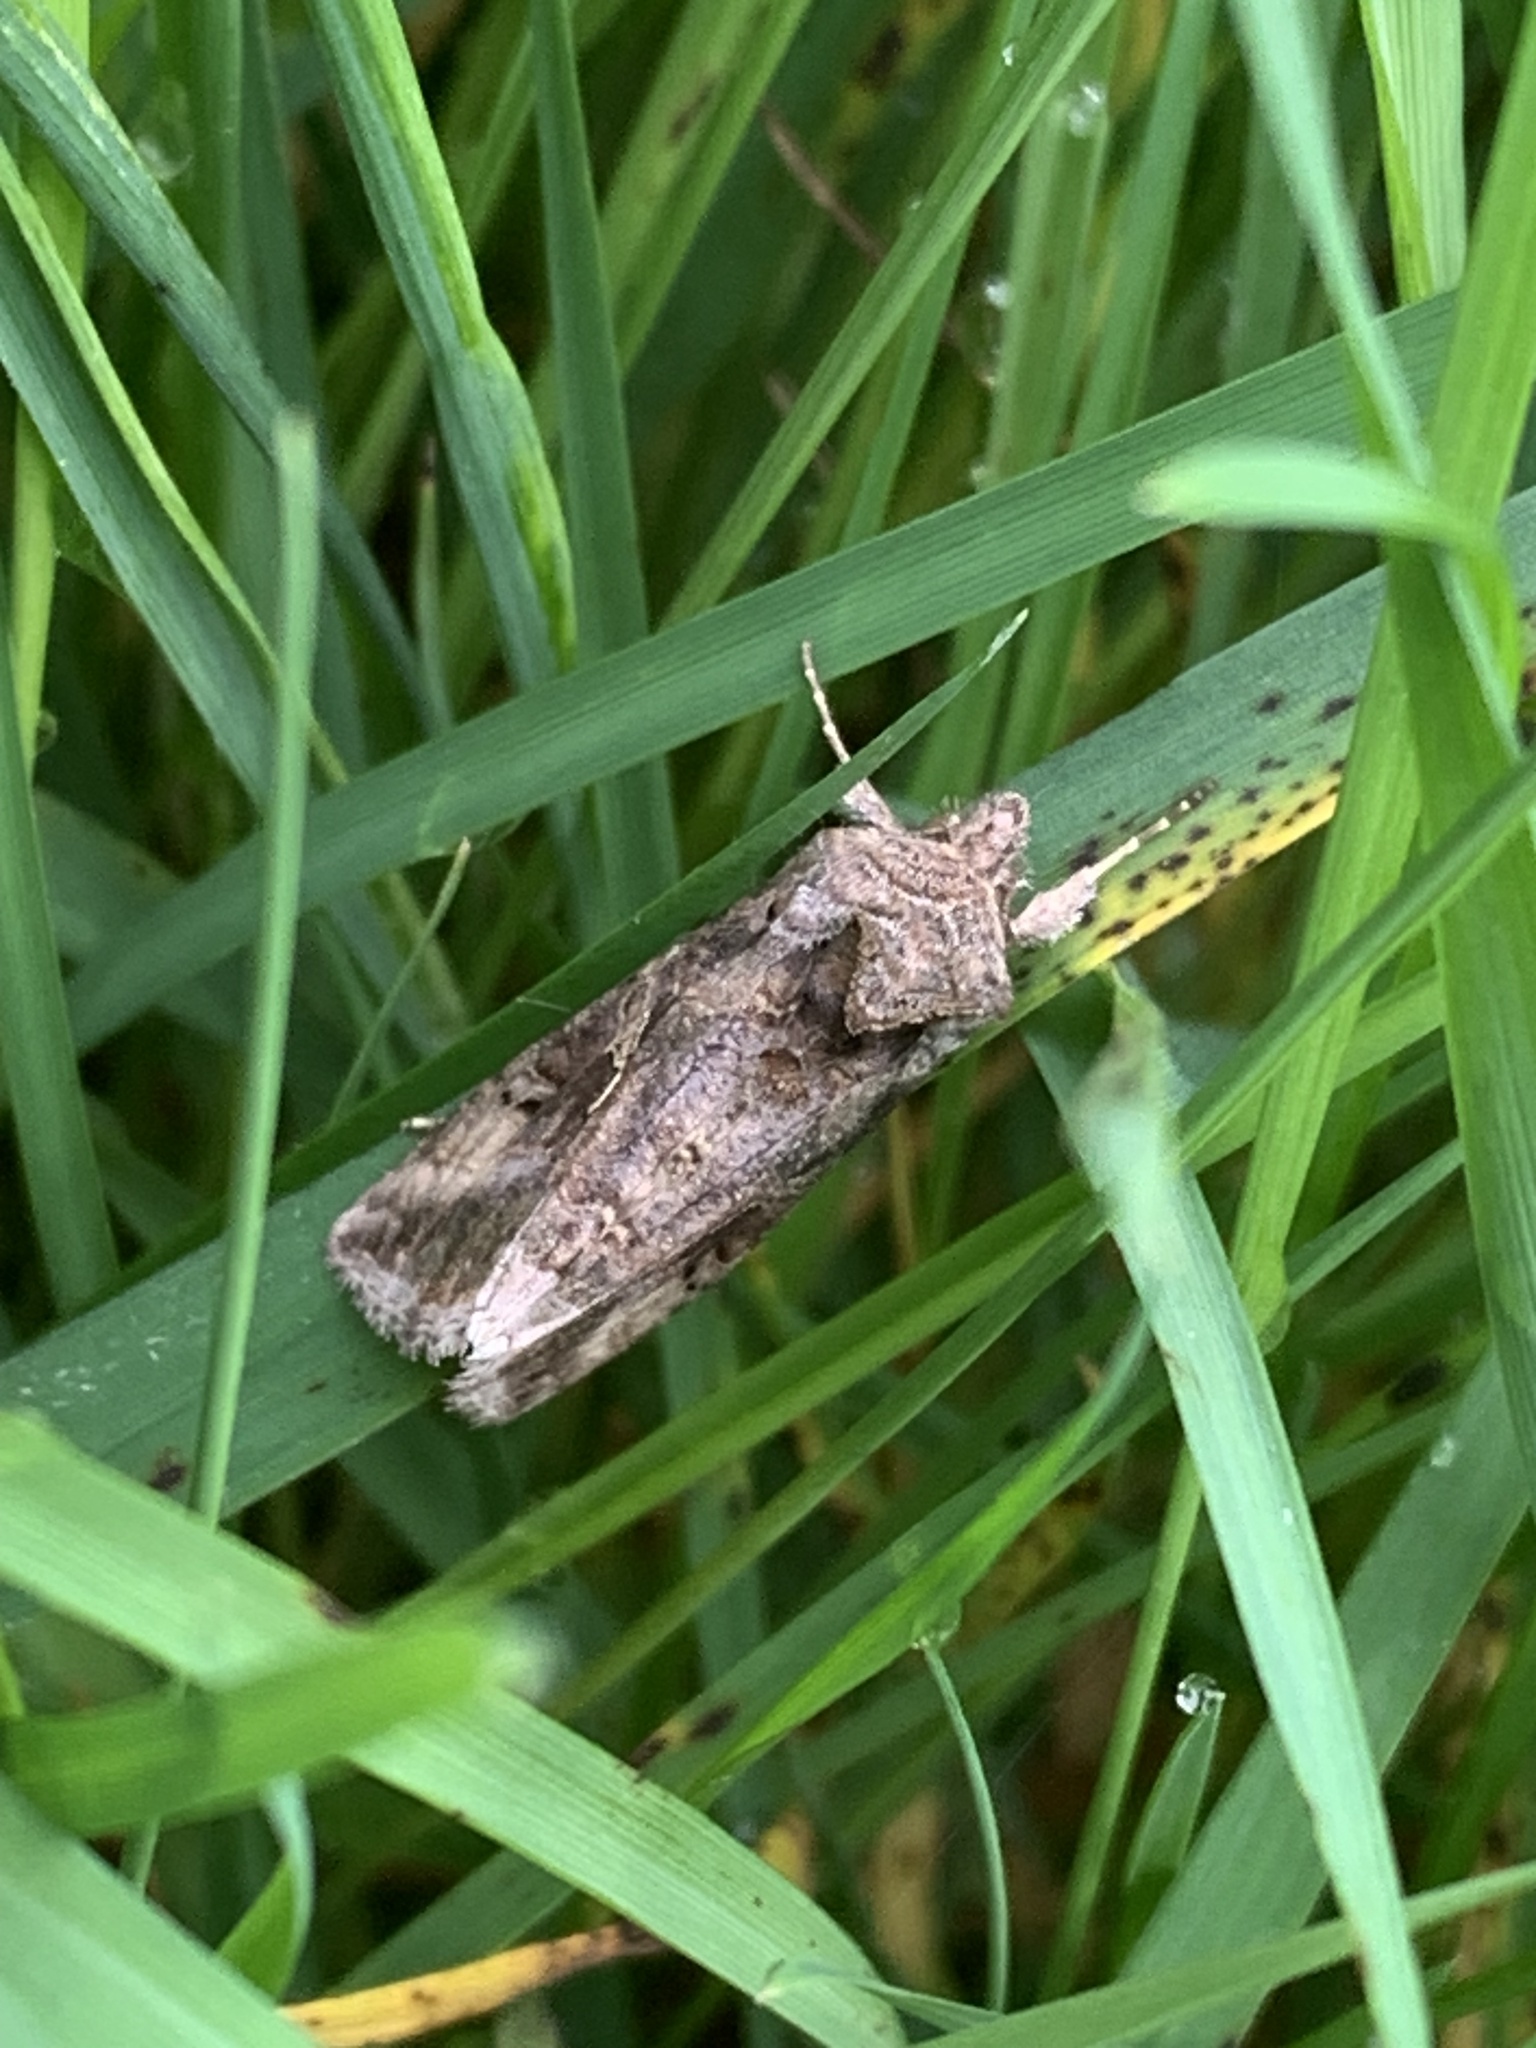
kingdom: Animalia
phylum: Arthropoda
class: Insecta
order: Lepidoptera
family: Noctuidae
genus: Autographa
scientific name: Autographa gamma
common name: Silver y
